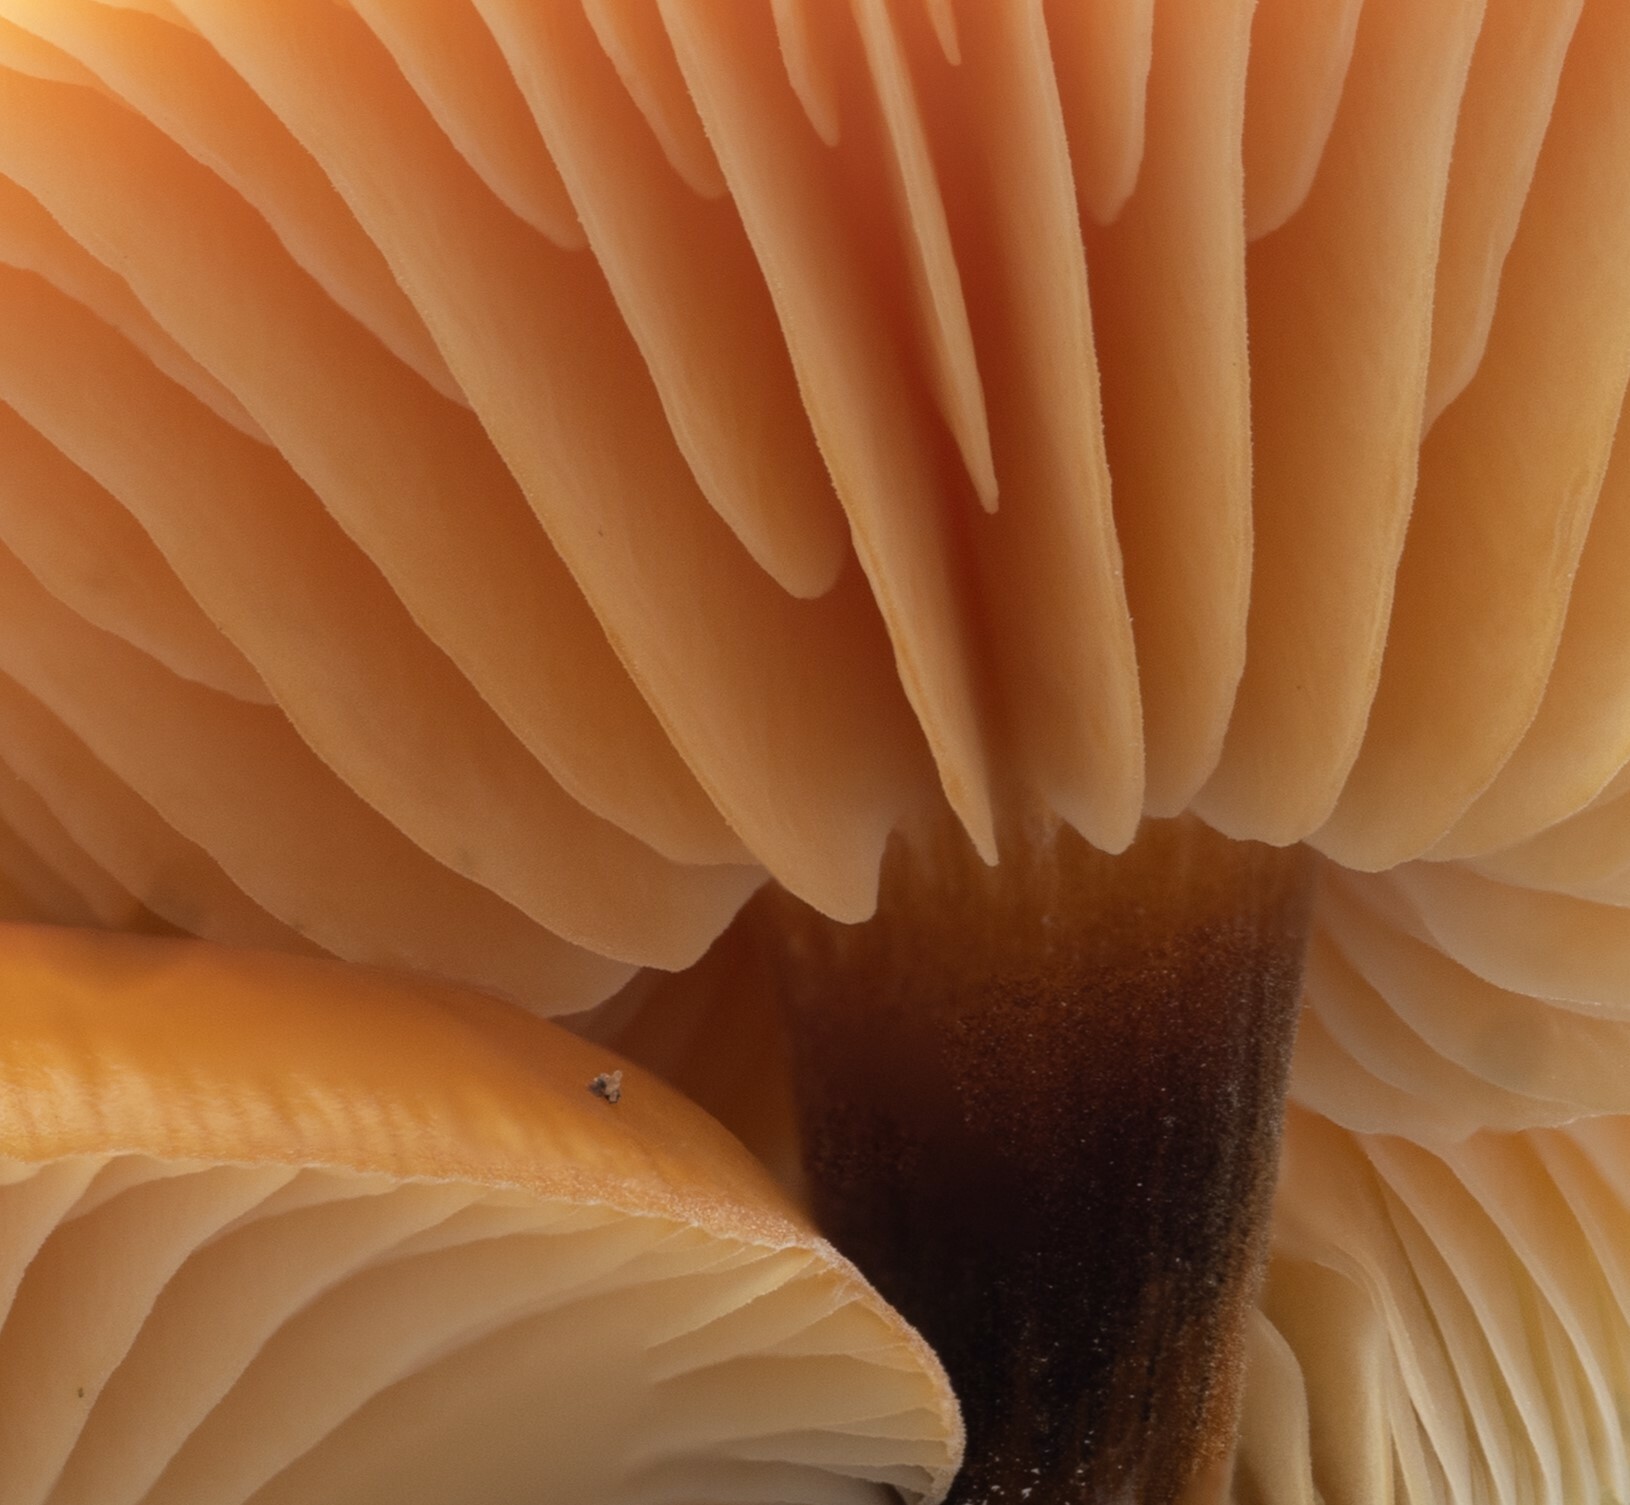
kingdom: Fungi
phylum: Basidiomycota
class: Agaricomycetes
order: Agaricales
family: Physalacriaceae
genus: Flammulina
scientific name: Flammulina velutipes
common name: Velvet shank
